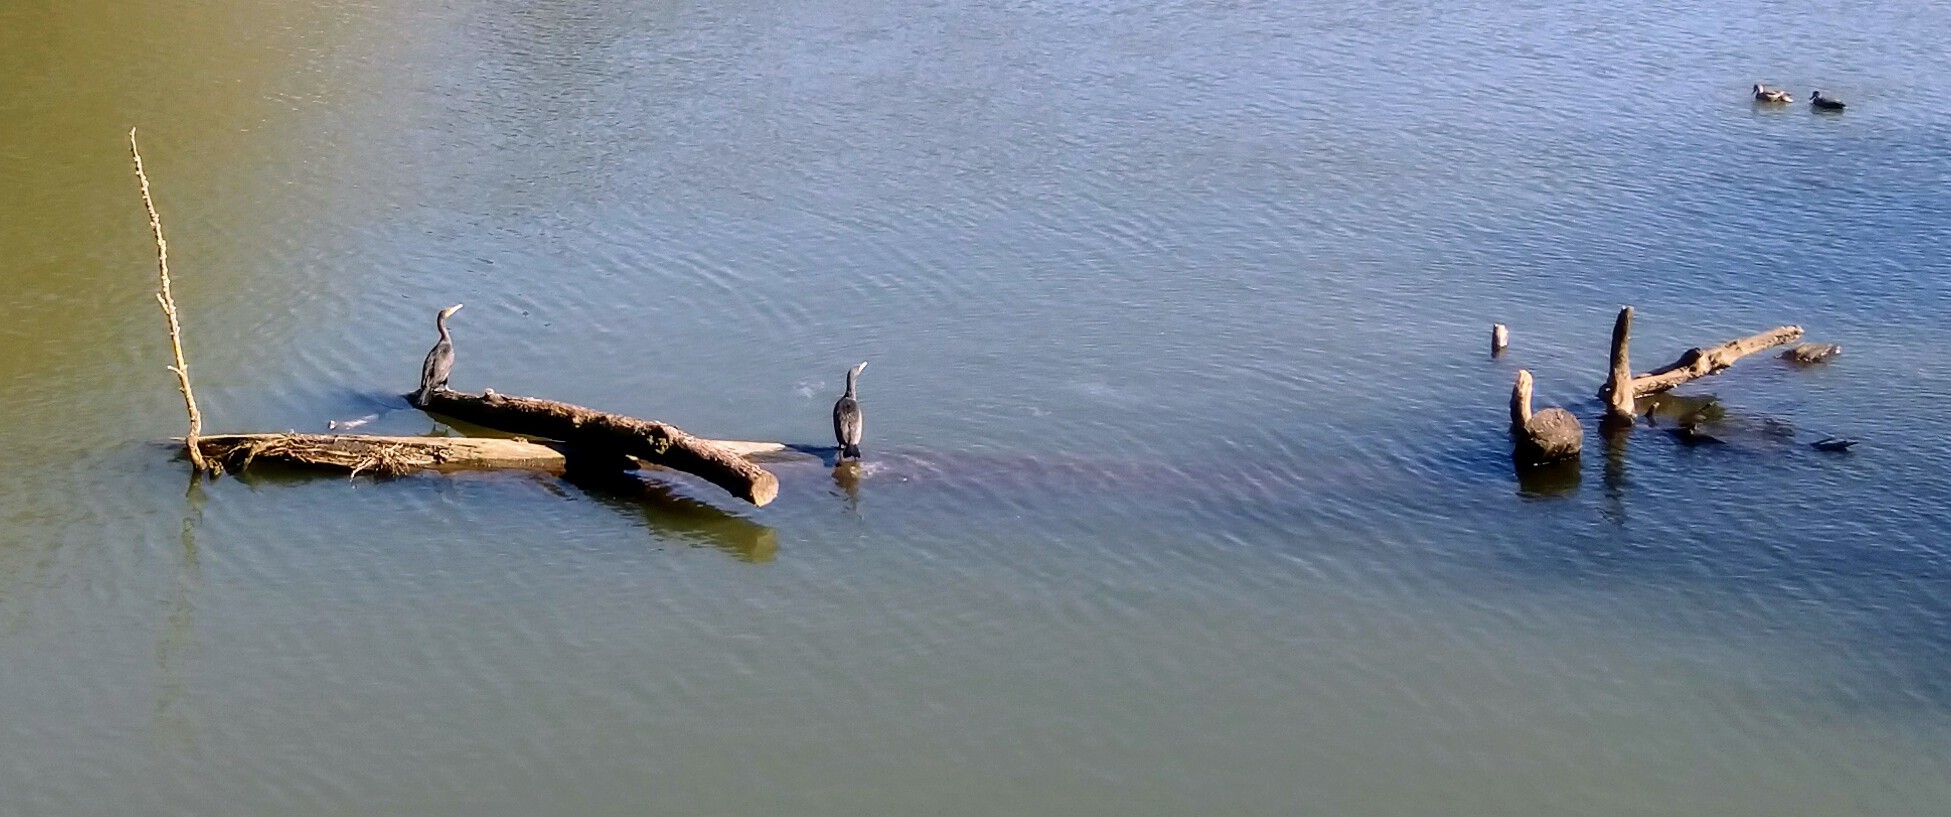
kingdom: Animalia
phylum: Chordata
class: Aves
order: Suliformes
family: Phalacrocoracidae
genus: Phalacrocorax
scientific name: Phalacrocorax auritus
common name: Double-crested cormorant
